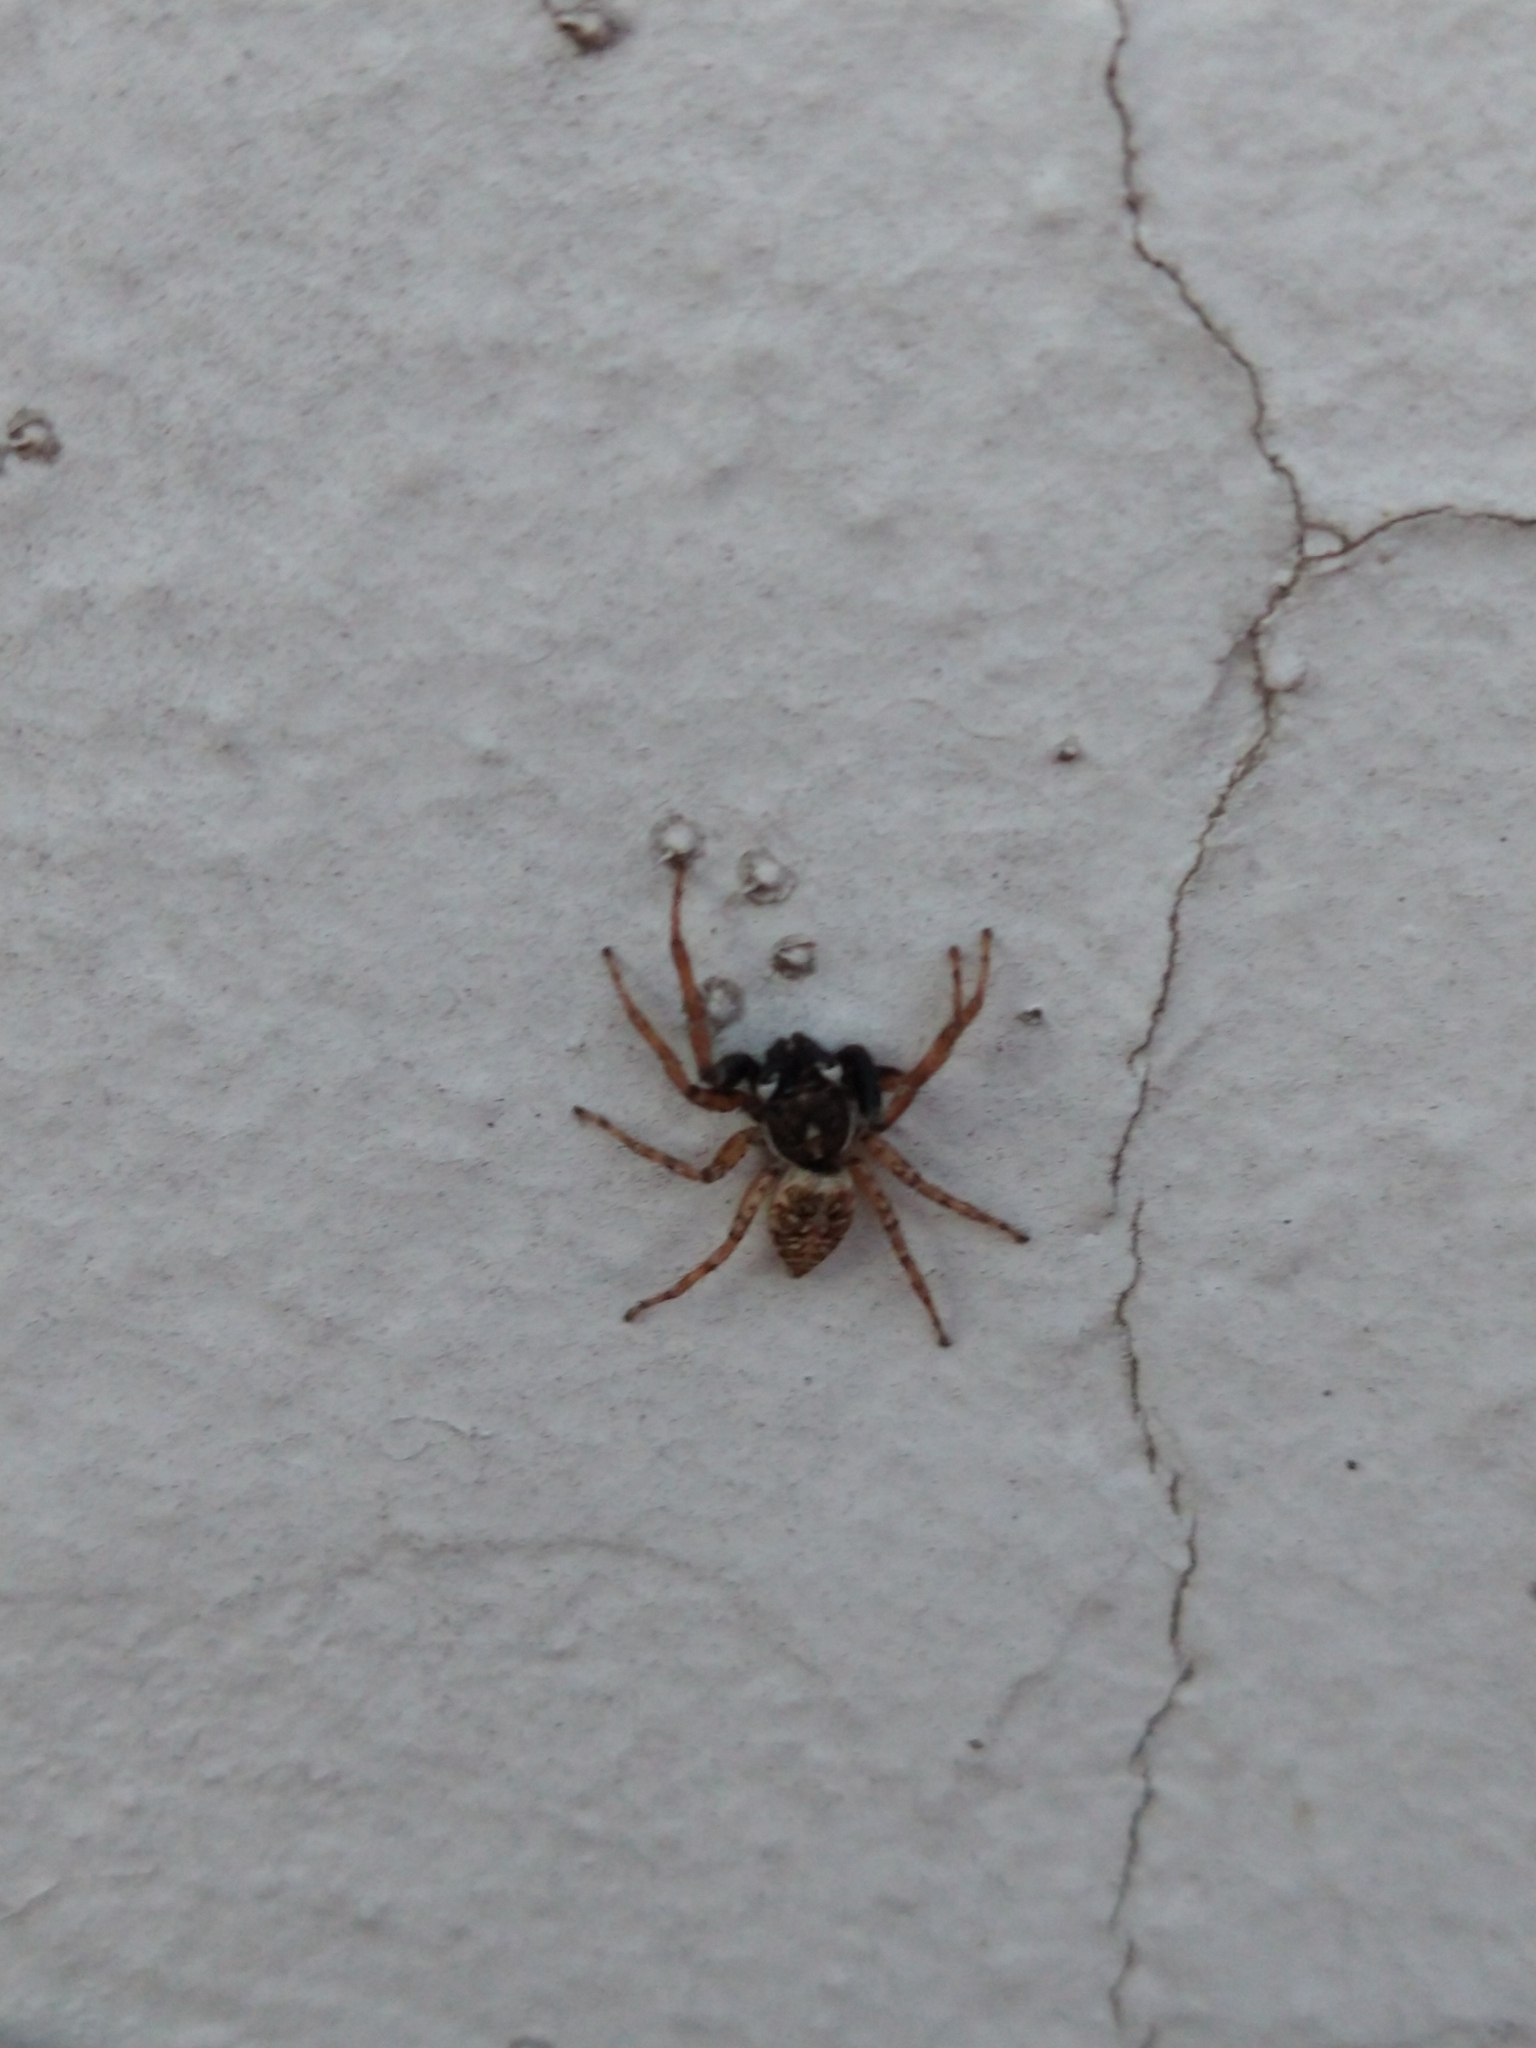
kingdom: Animalia
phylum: Arthropoda
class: Arachnida
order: Araneae
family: Salticidae
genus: Menemerus
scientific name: Menemerus semilimbatus
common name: Jumping spider
